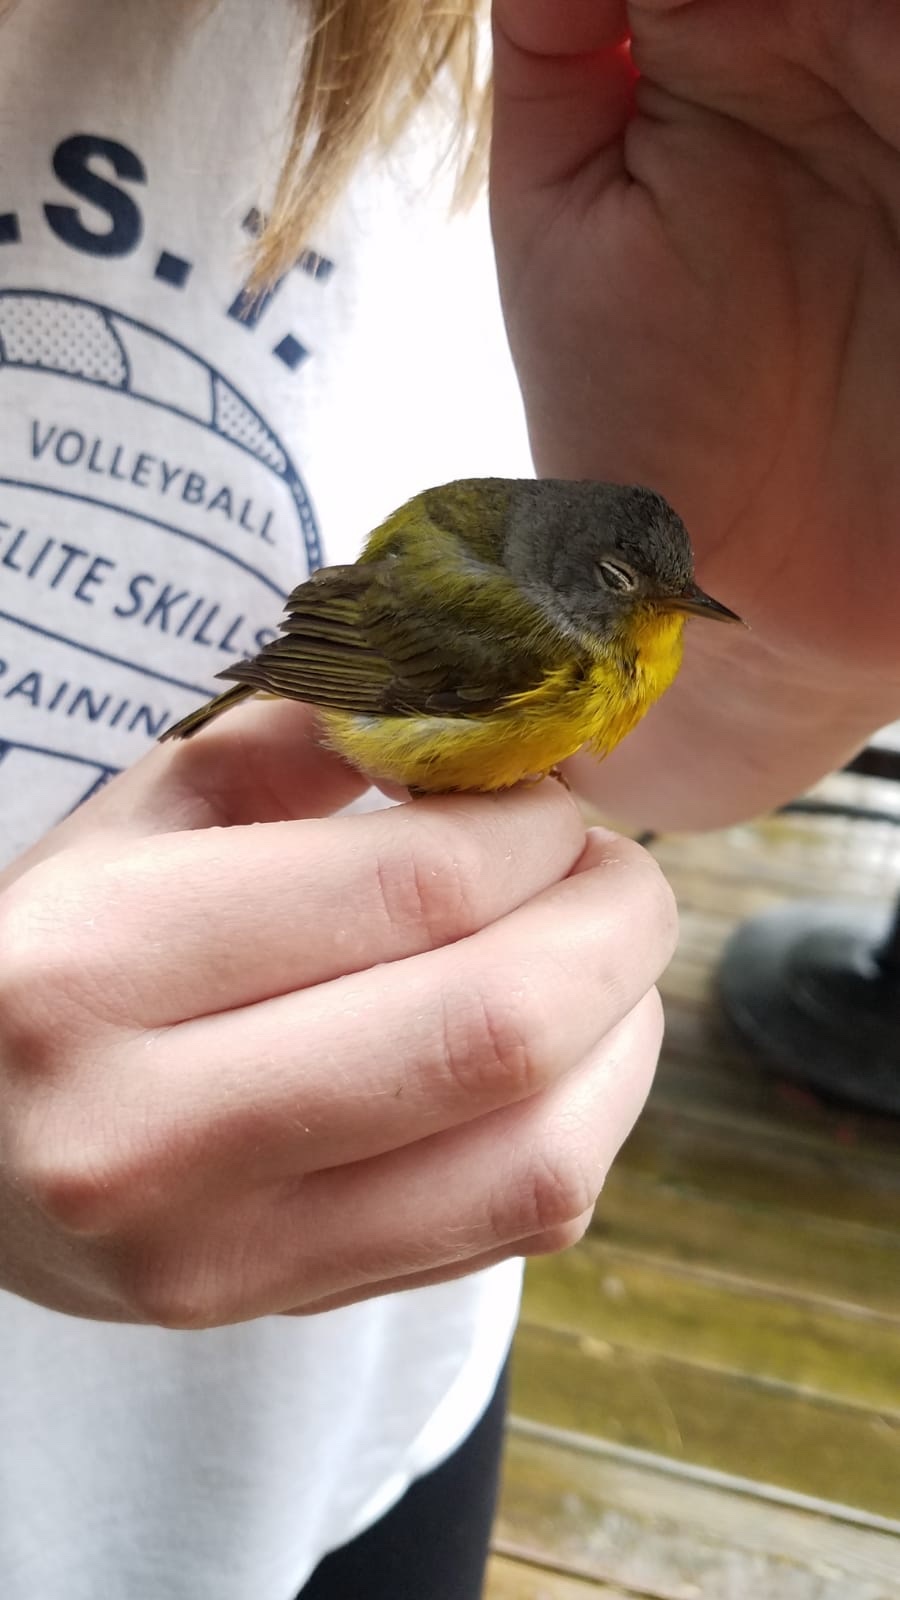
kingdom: Animalia
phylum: Chordata
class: Aves
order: Passeriformes
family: Parulidae
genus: Leiothlypis
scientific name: Leiothlypis ruficapilla
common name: Nashville warbler
